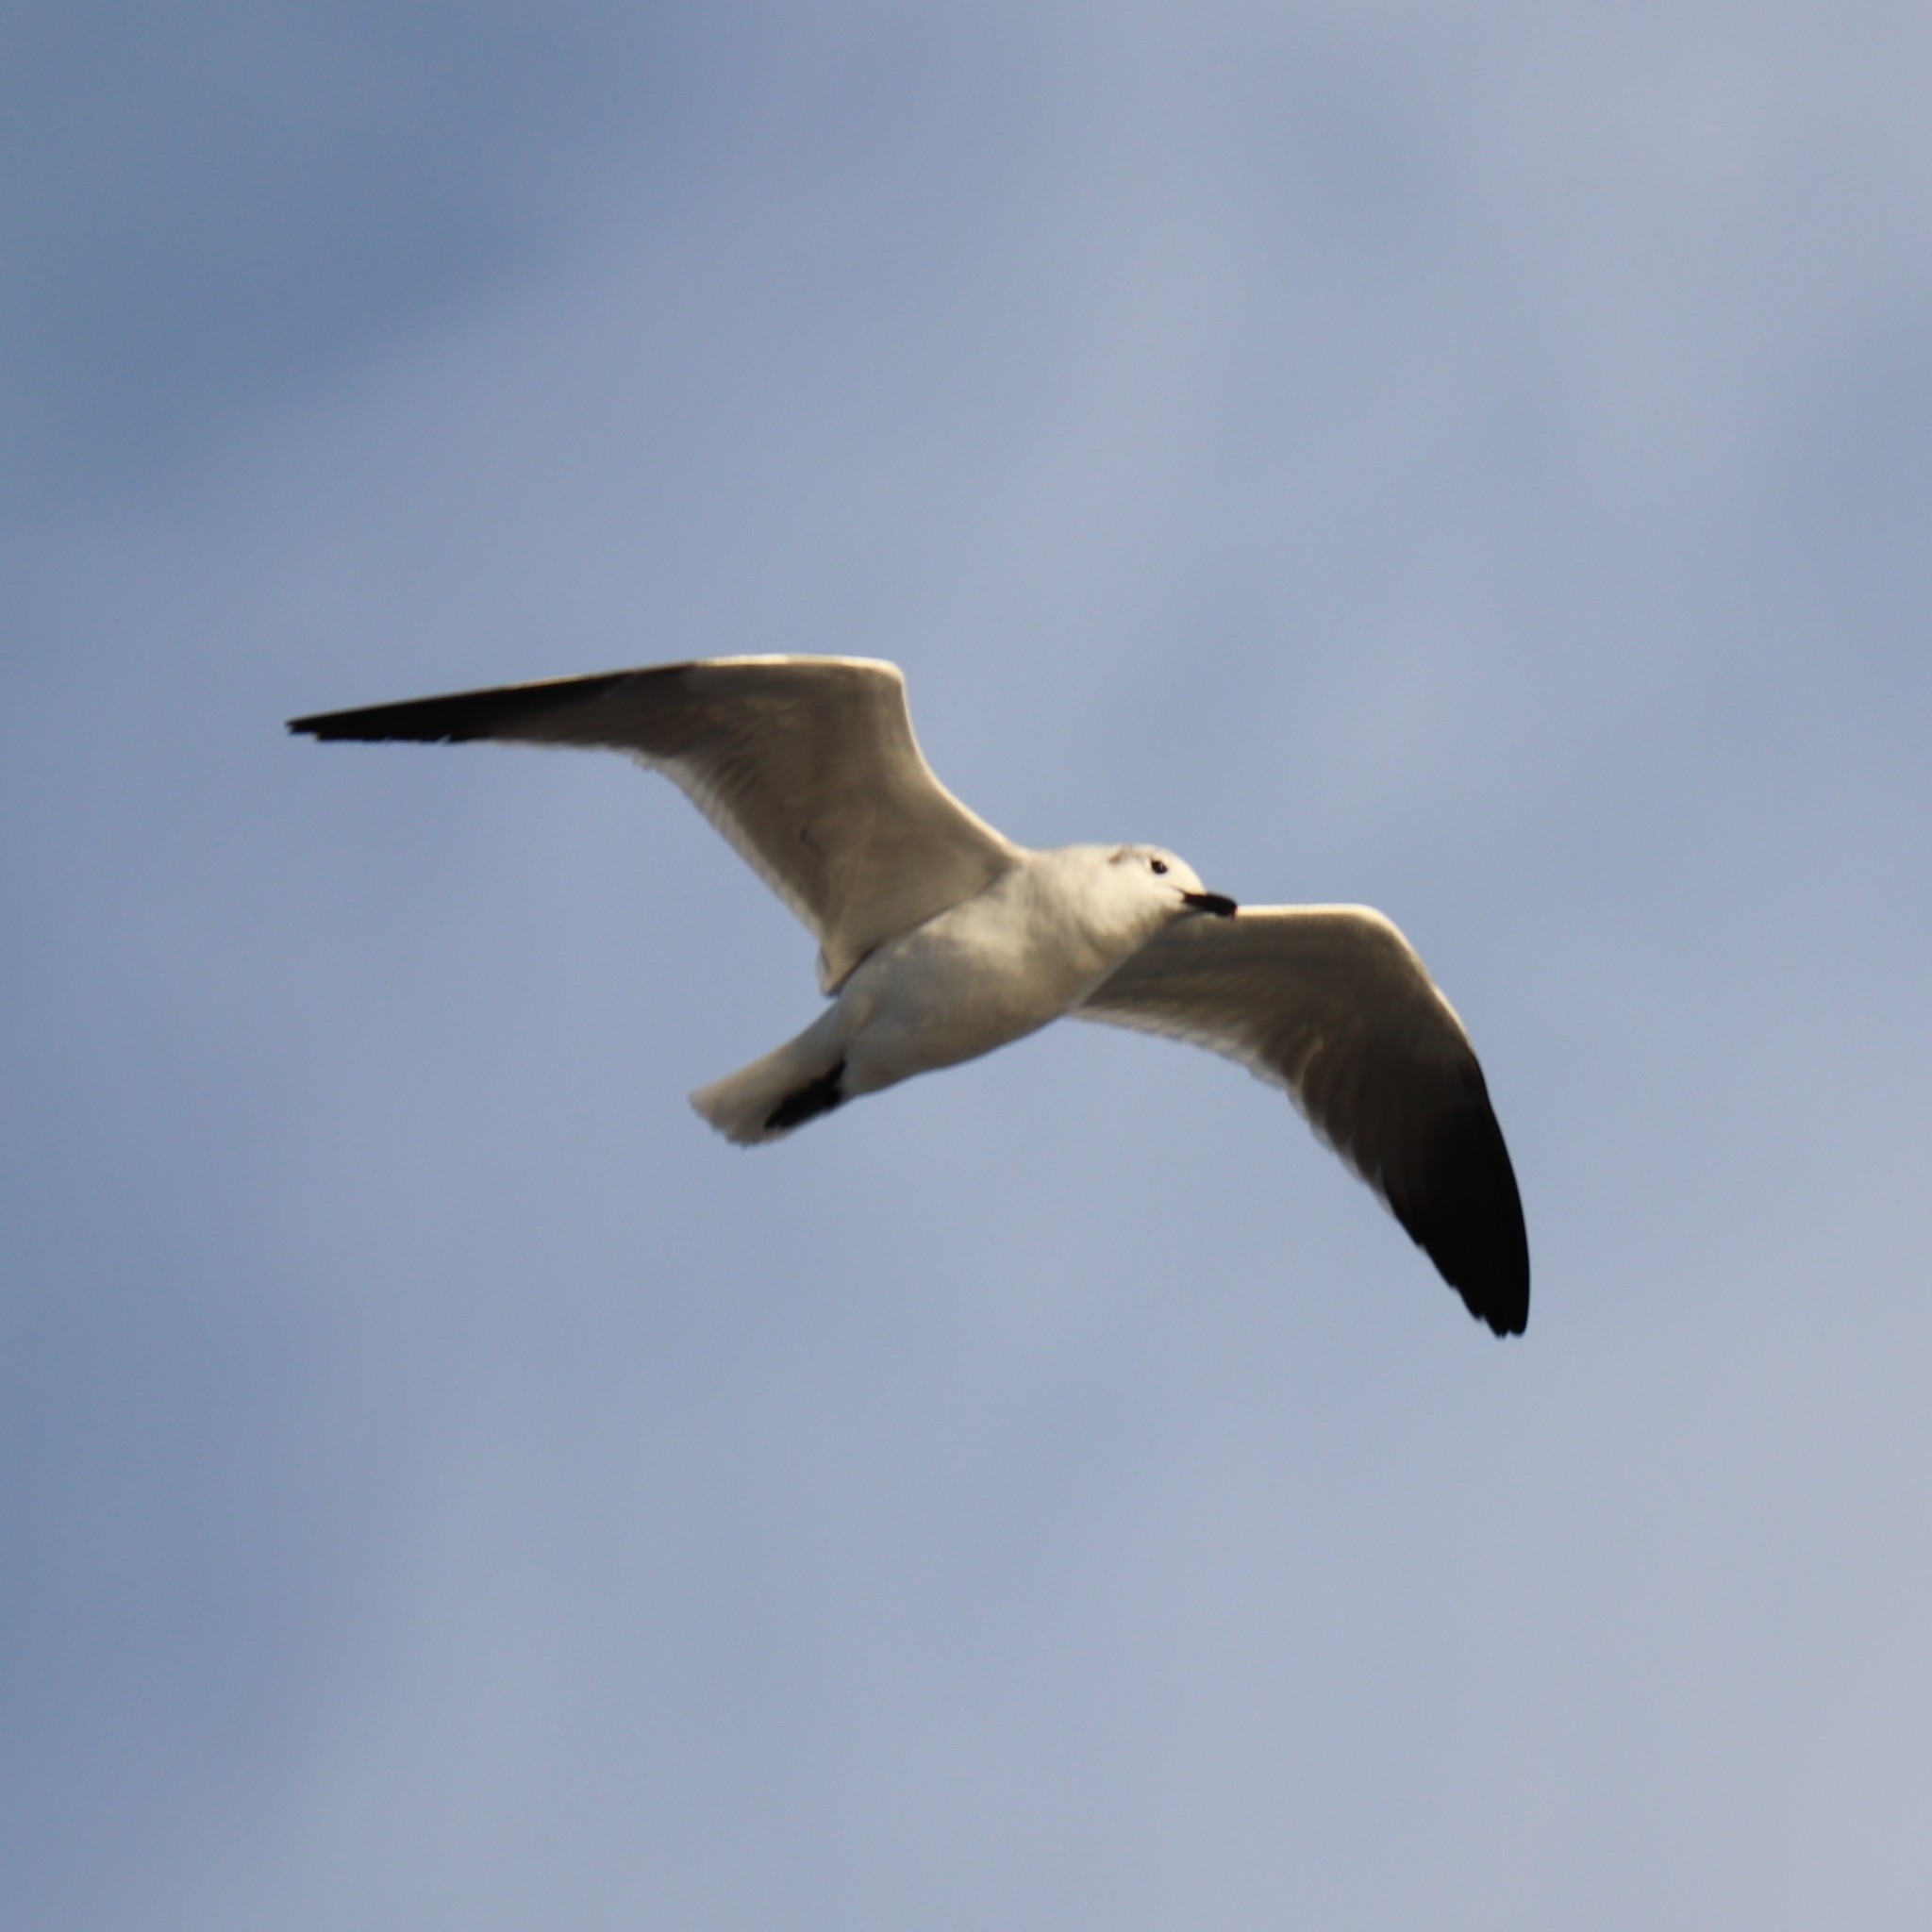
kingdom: Animalia
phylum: Chordata
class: Aves
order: Charadriiformes
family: Laridae
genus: Leucophaeus
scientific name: Leucophaeus atricilla
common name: Laughing gull
